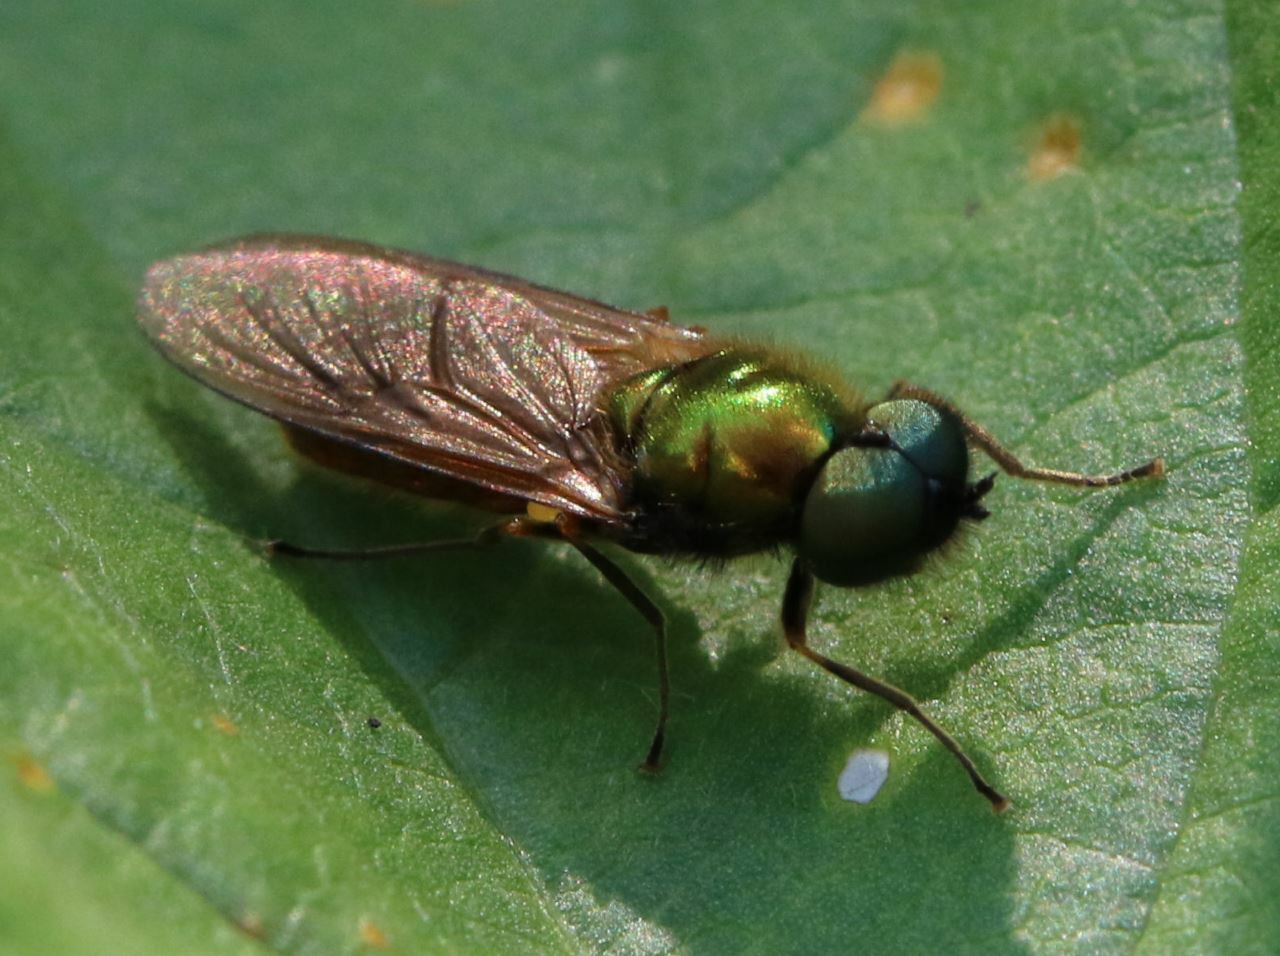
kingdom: Animalia
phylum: Arthropoda
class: Insecta
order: Diptera
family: Stratiomyidae
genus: Chloromyia
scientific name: Chloromyia formosa
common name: Soldier fly
